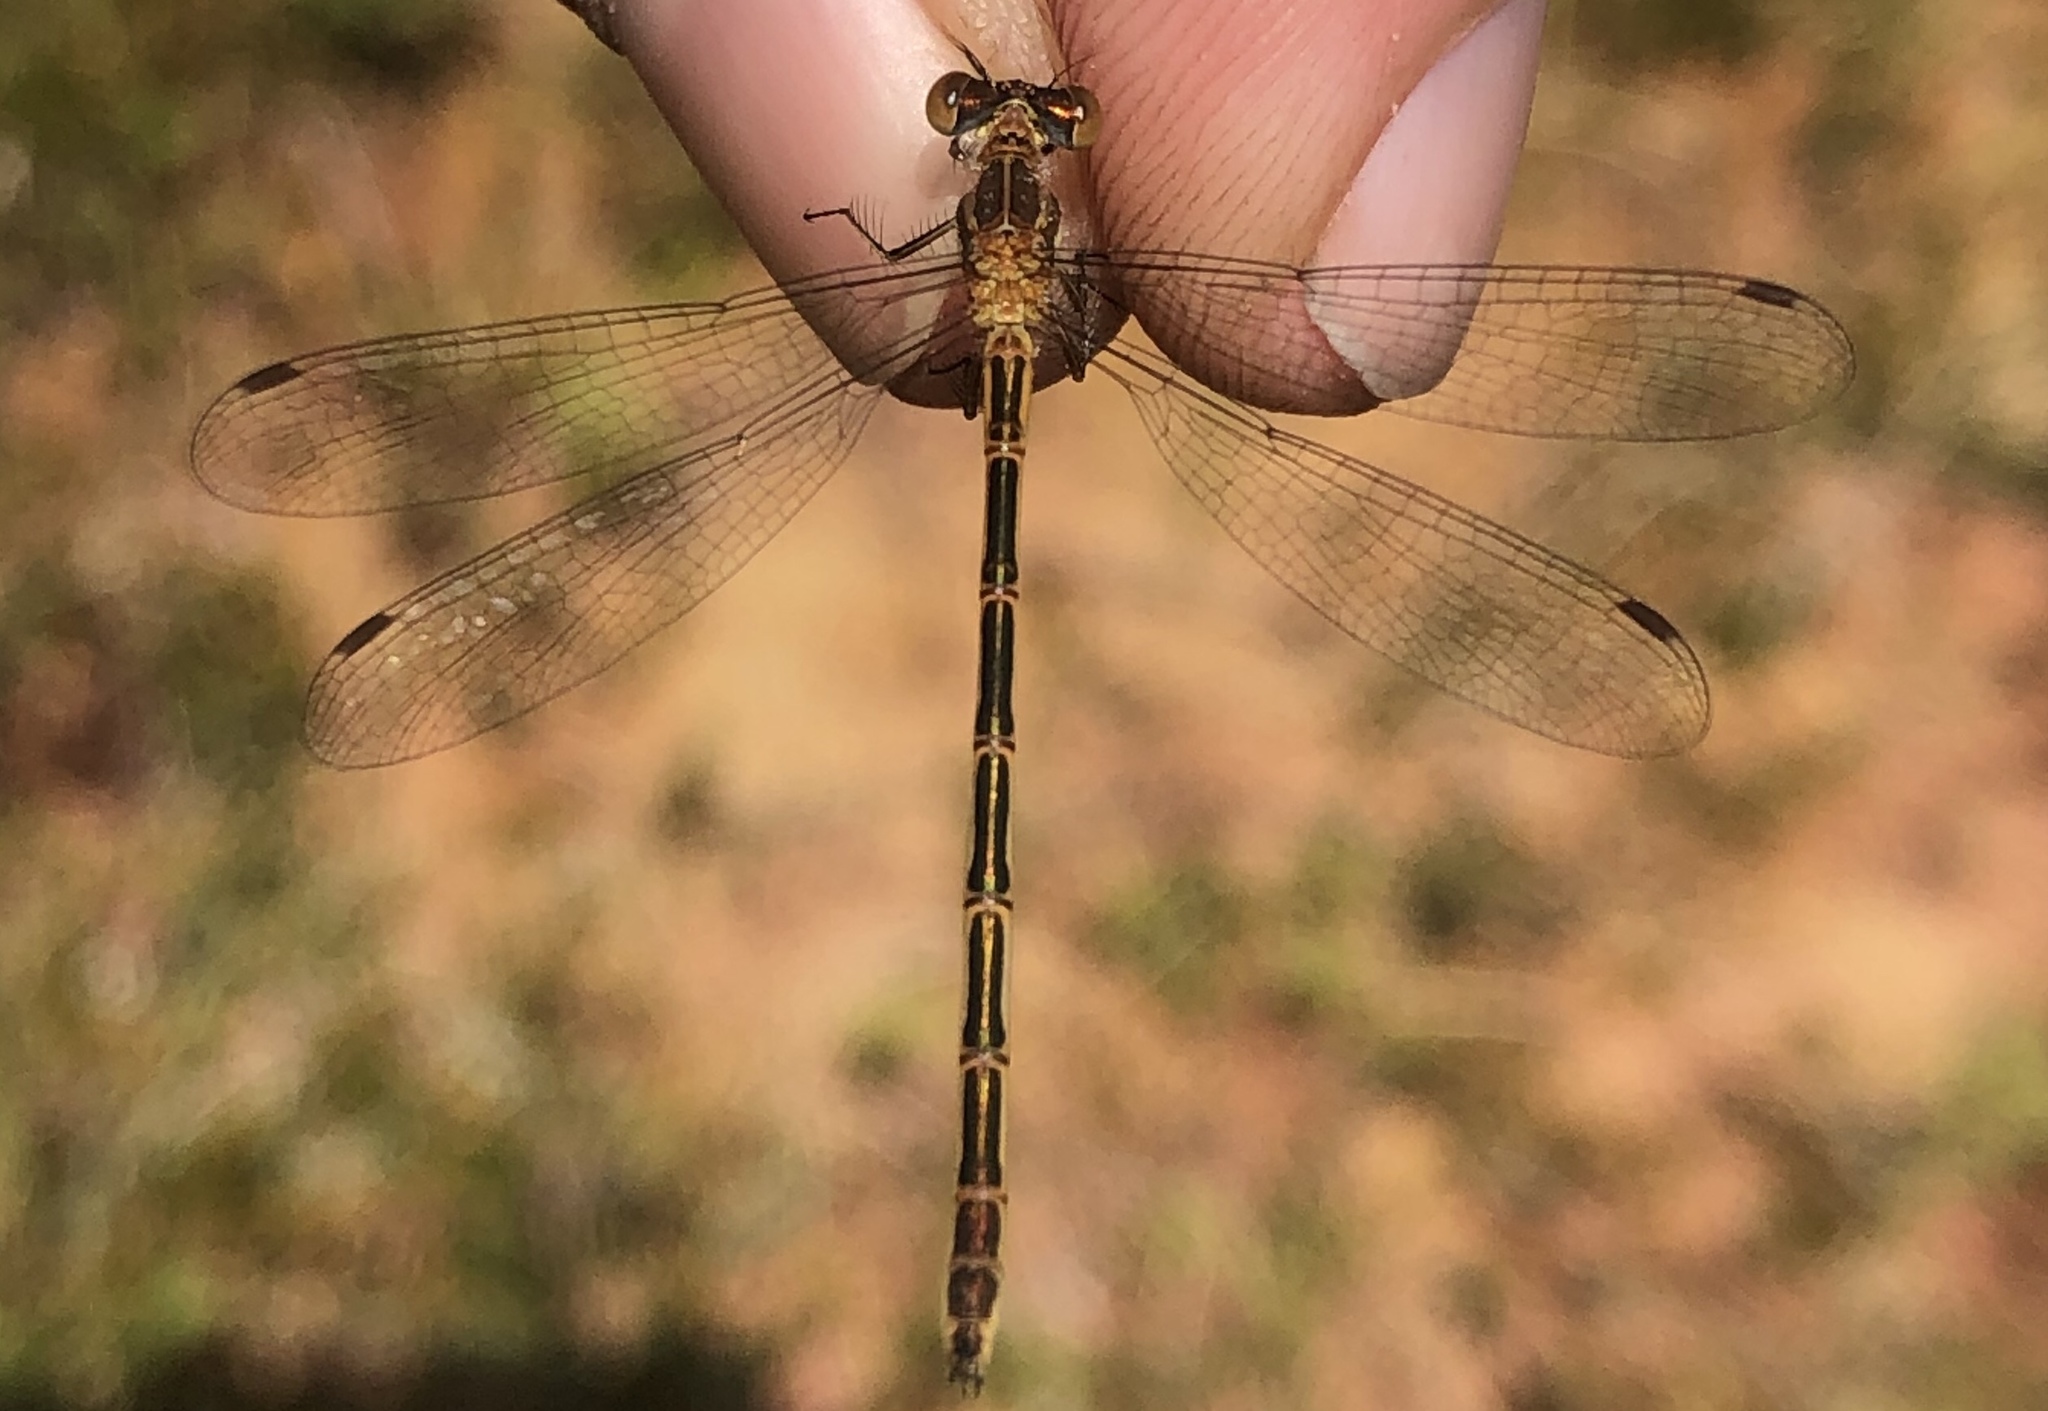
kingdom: Animalia
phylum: Arthropoda
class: Insecta
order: Odonata
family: Lestidae
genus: Lestes
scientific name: Lestes disjunctus
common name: Northern spreadwing
